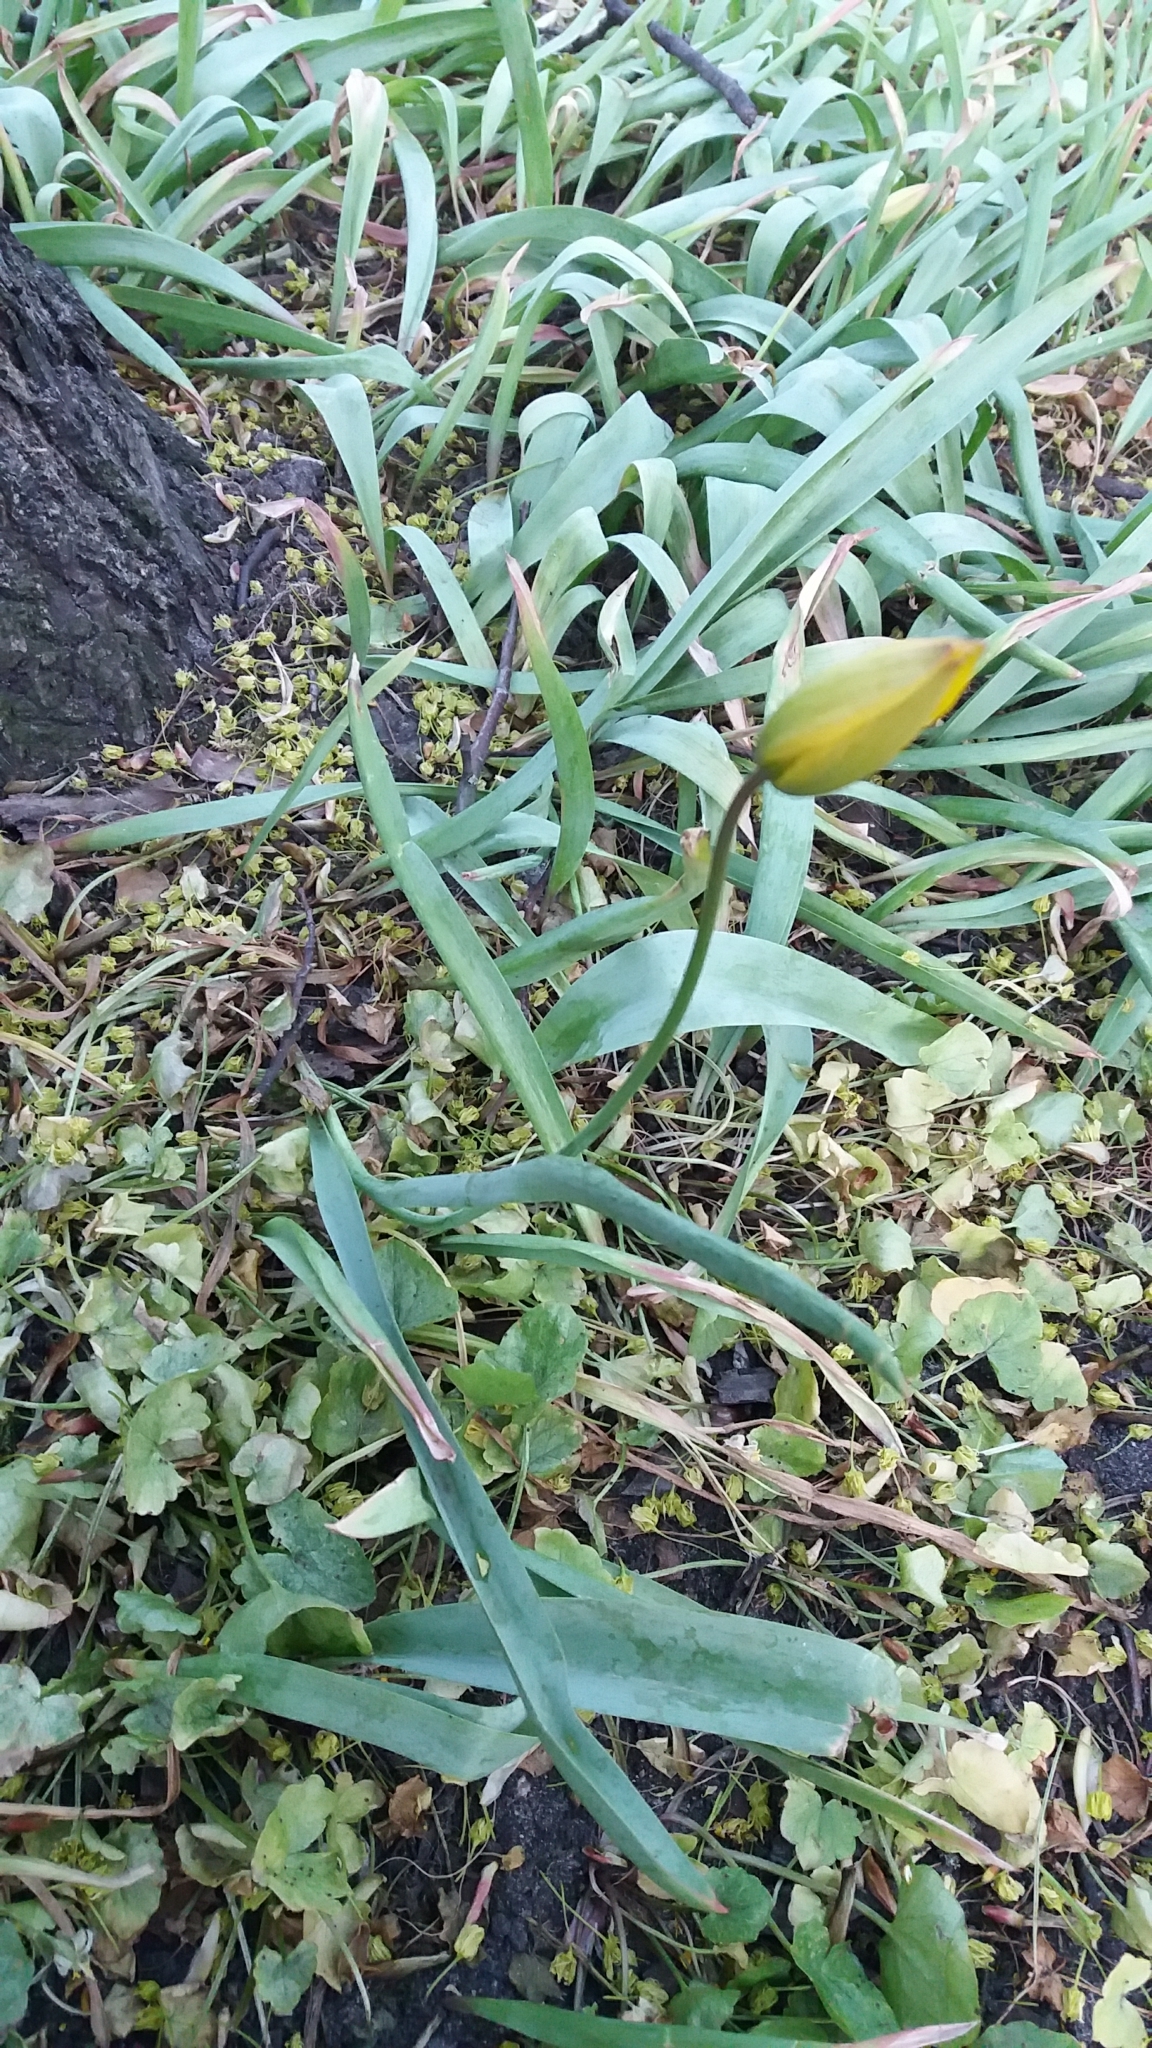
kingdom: Plantae
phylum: Tracheophyta
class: Liliopsida
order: Liliales
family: Liliaceae
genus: Tulipa
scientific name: Tulipa sylvestris
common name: Wild tulip
